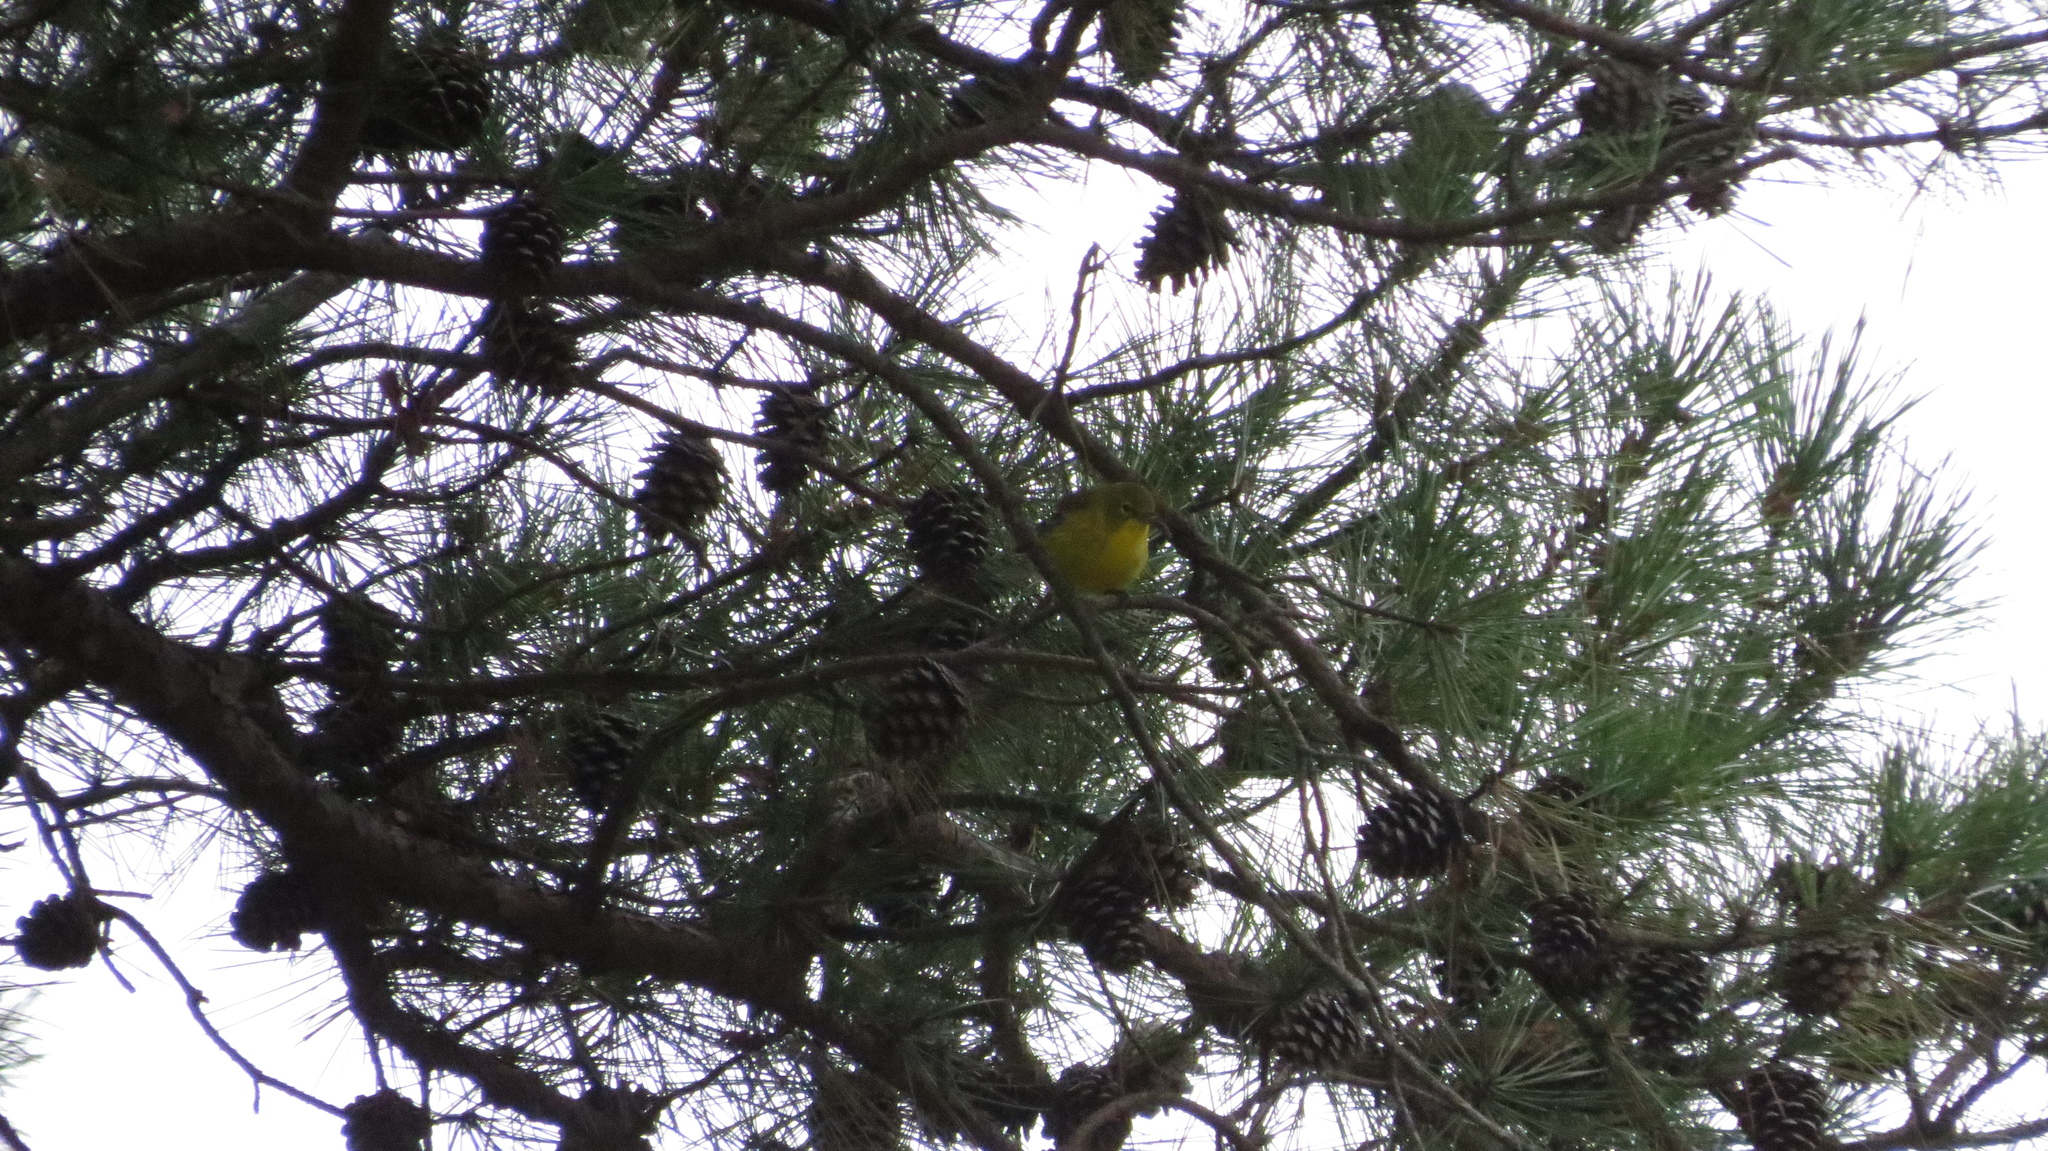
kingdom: Animalia
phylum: Chordata
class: Aves
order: Passeriformes
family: Parulidae
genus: Setophaga
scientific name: Setophaga pinus
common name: Pine warbler
